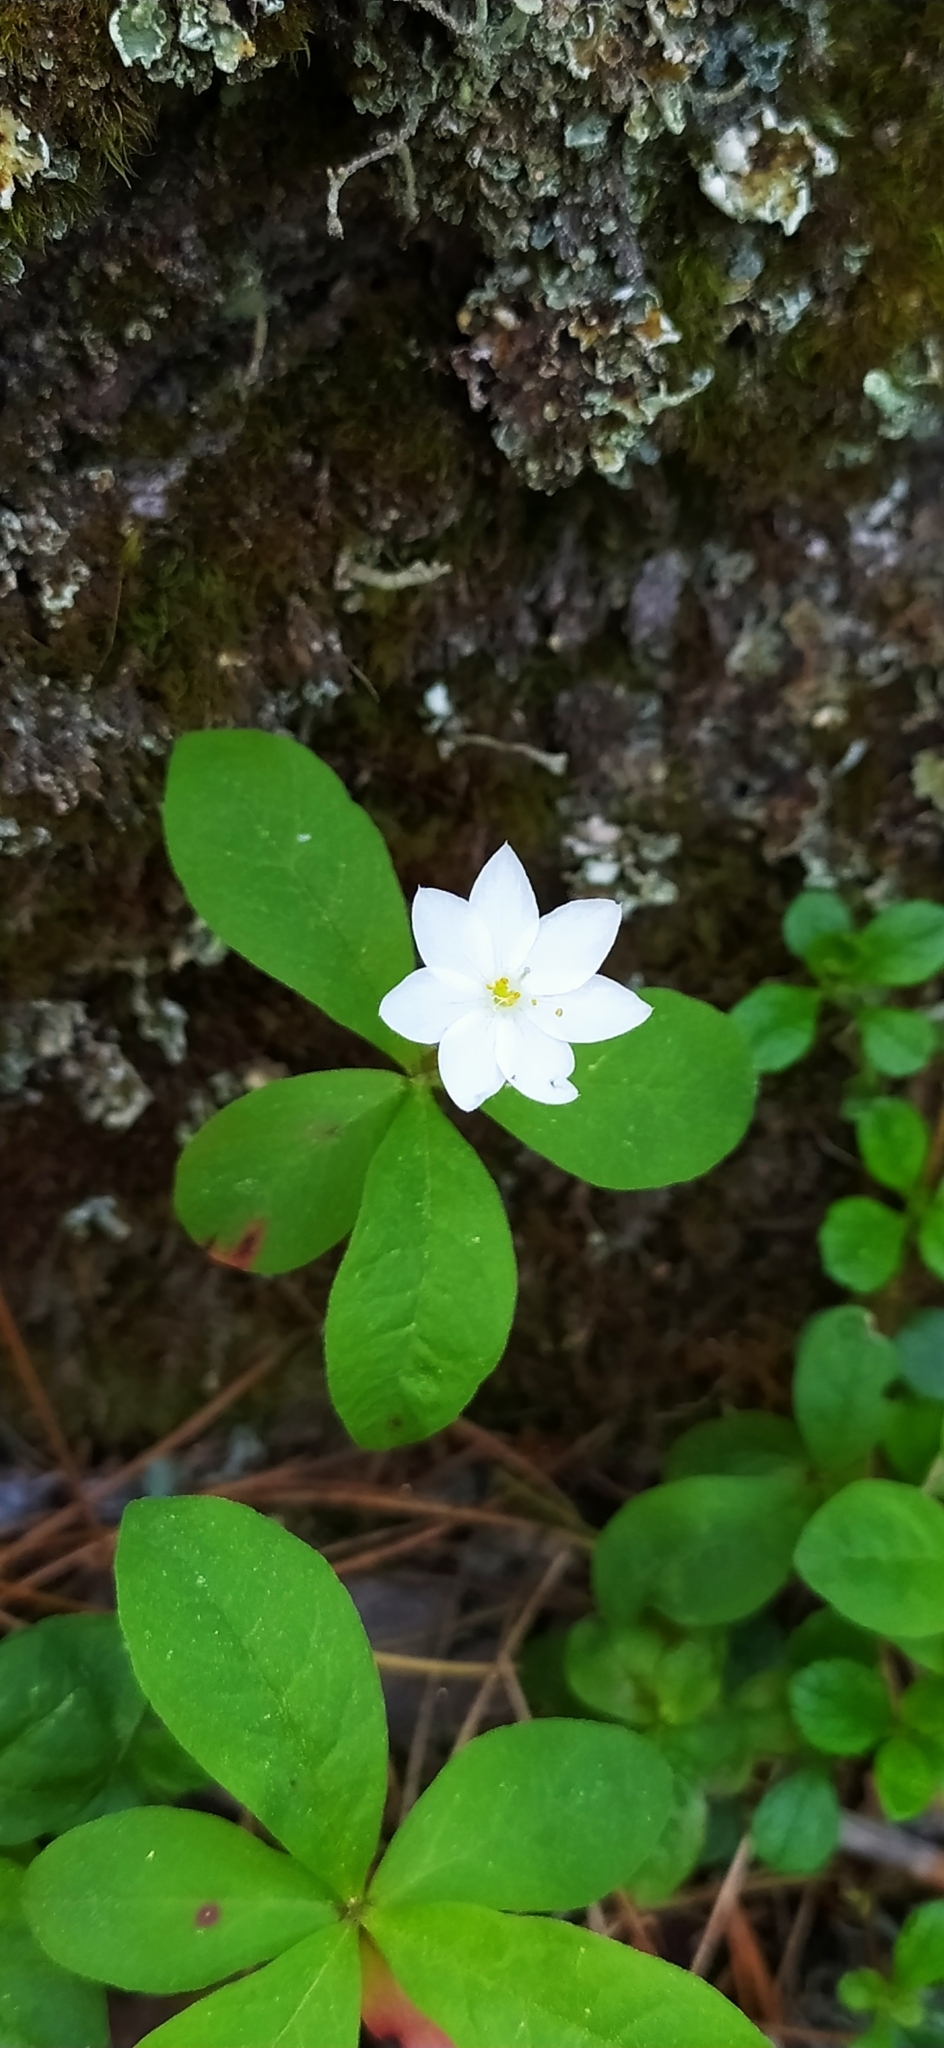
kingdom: Plantae
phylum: Tracheophyta
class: Magnoliopsida
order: Ericales
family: Primulaceae
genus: Lysimachia
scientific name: Lysimachia europaea
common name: Arctic starflower
